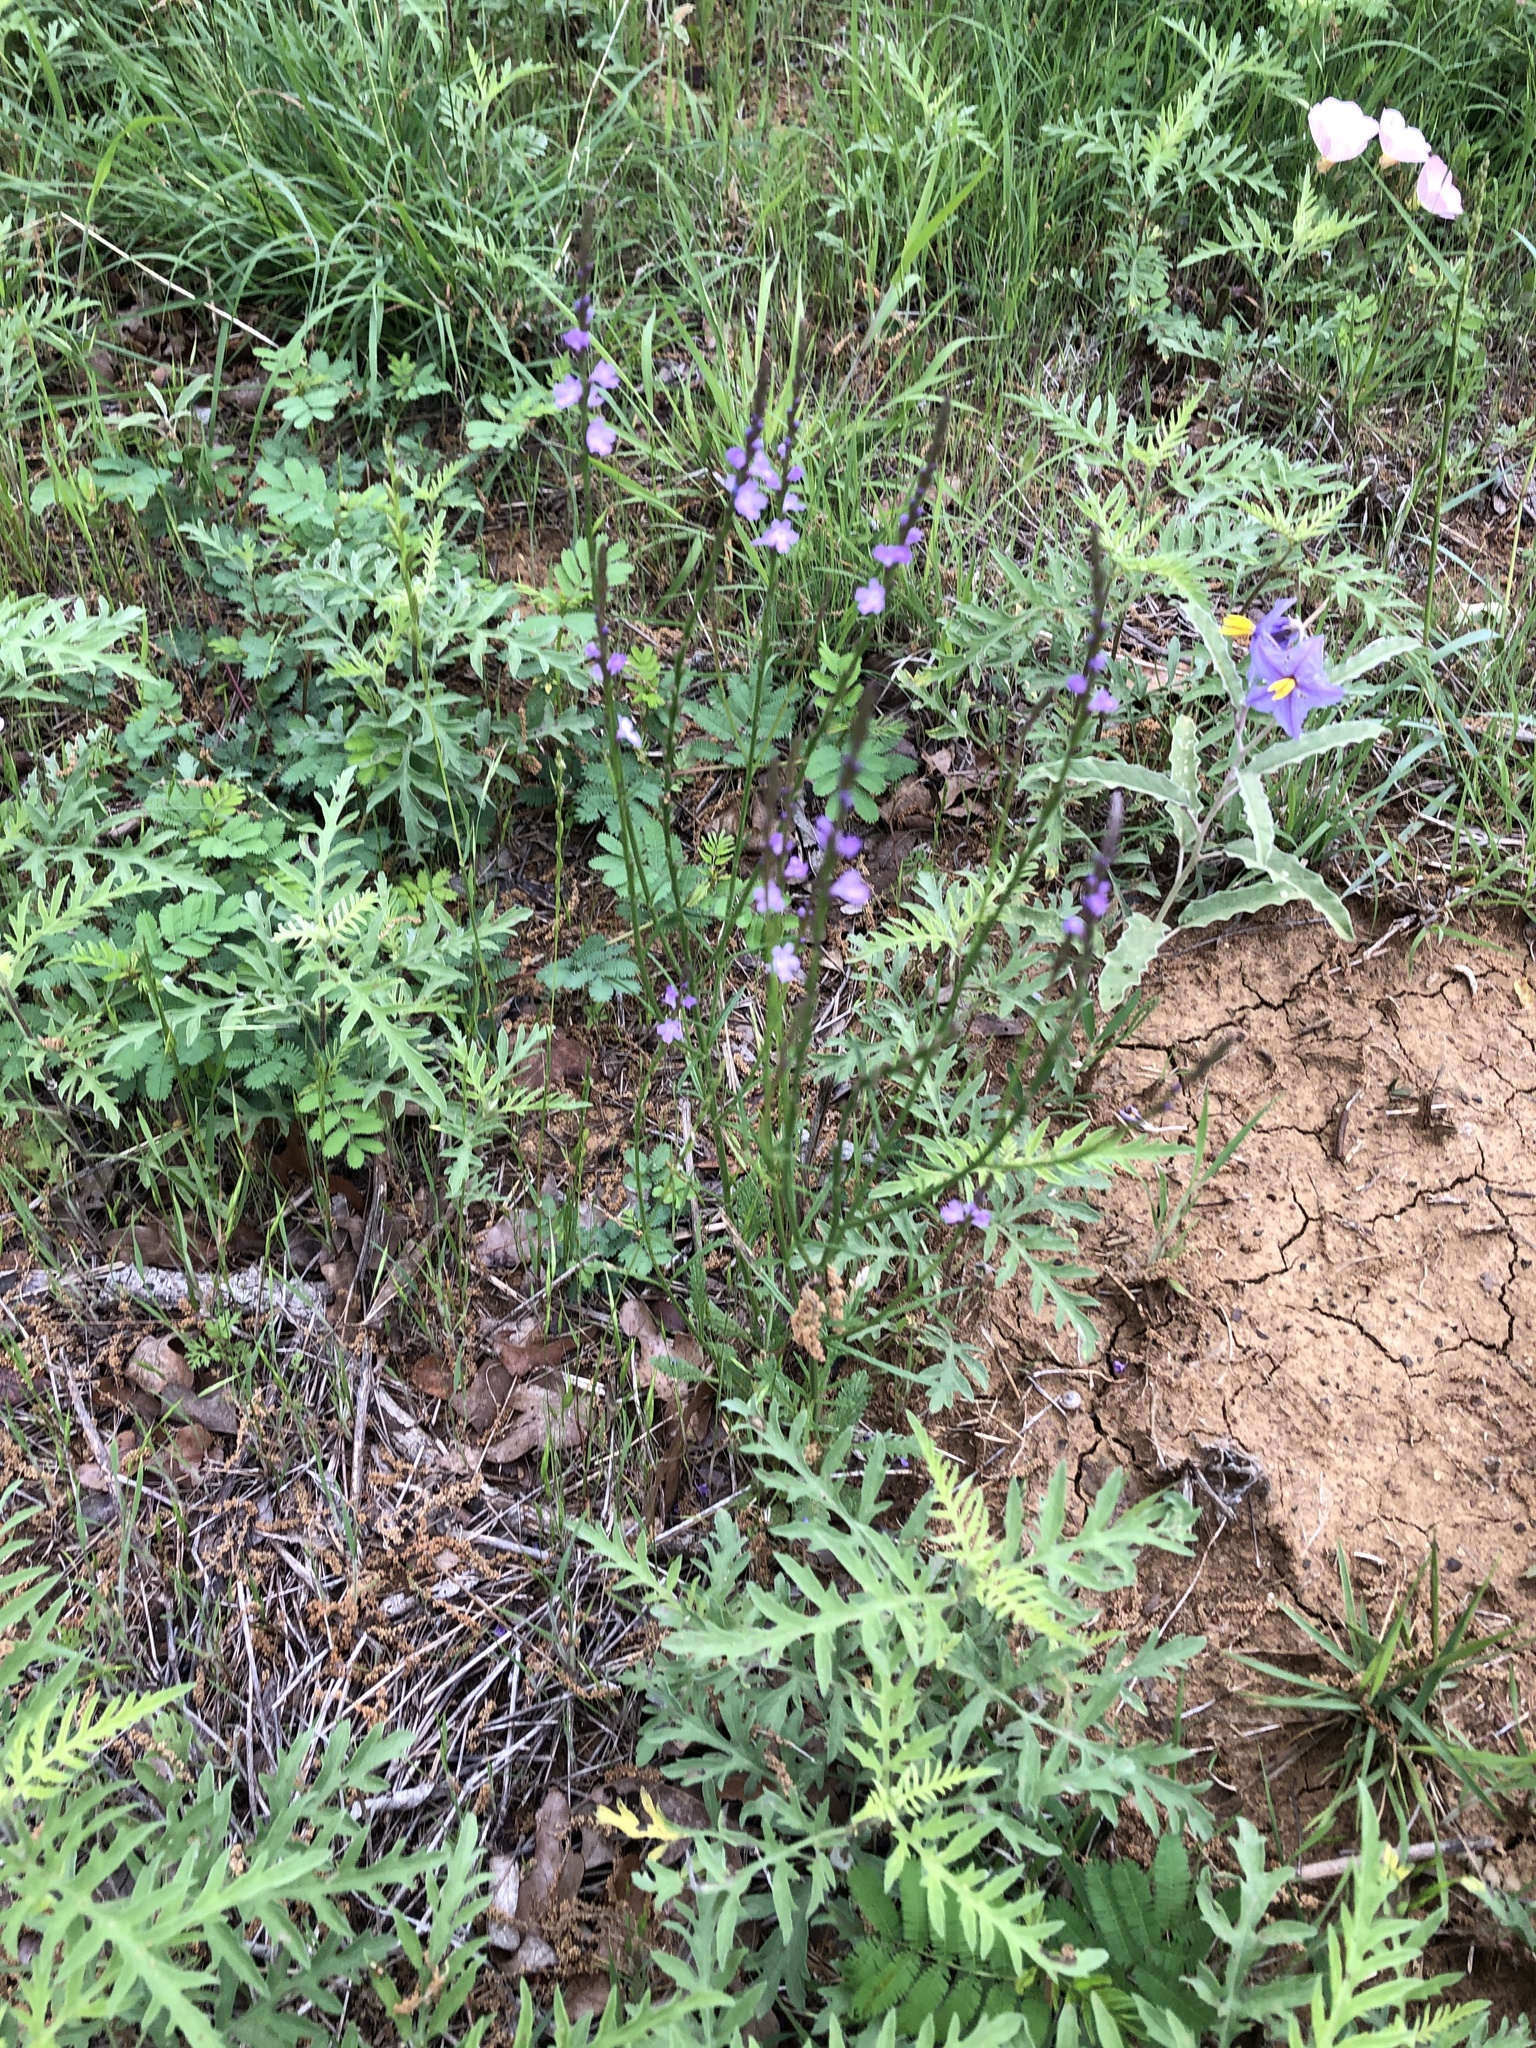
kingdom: Plantae
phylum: Tracheophyta
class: Magnoliopsida
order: Lamiales
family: Verbenaceae
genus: Verbena
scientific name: Verbena halei
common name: Texas vervain
